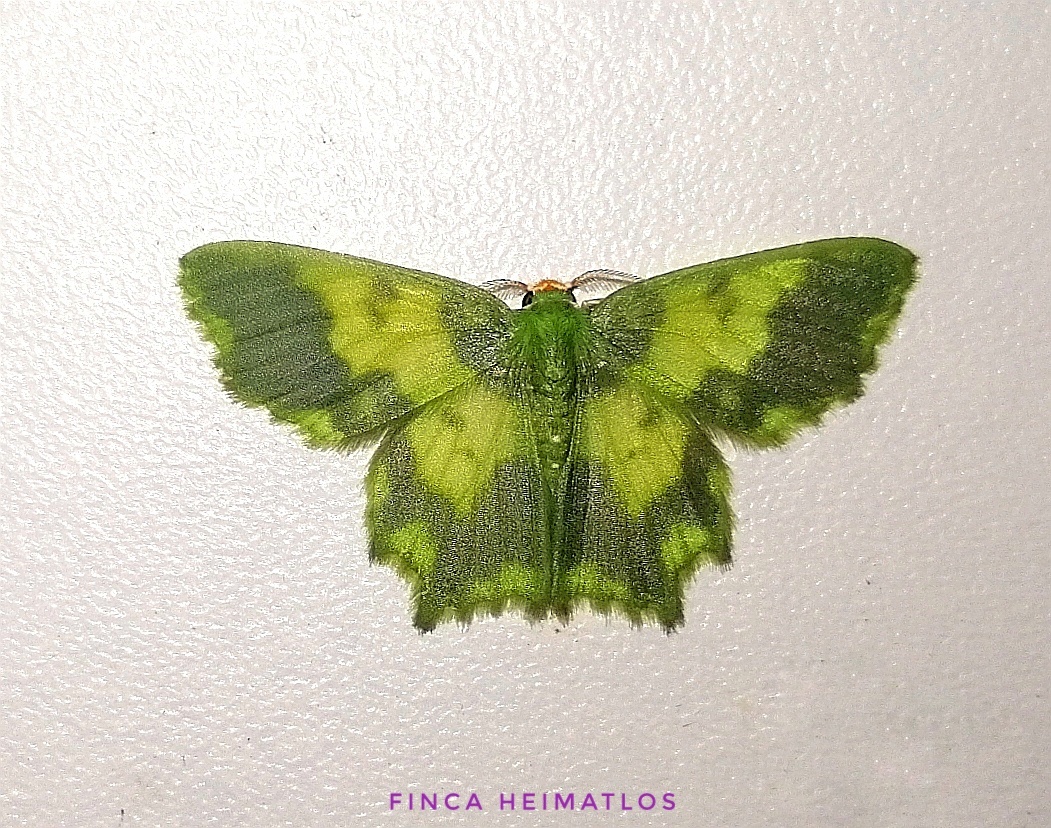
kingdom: Animalia
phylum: Arthropoda
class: Insecta
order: Lepidoptera
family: Geometridae
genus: Cathydata
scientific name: Cathydata batina
